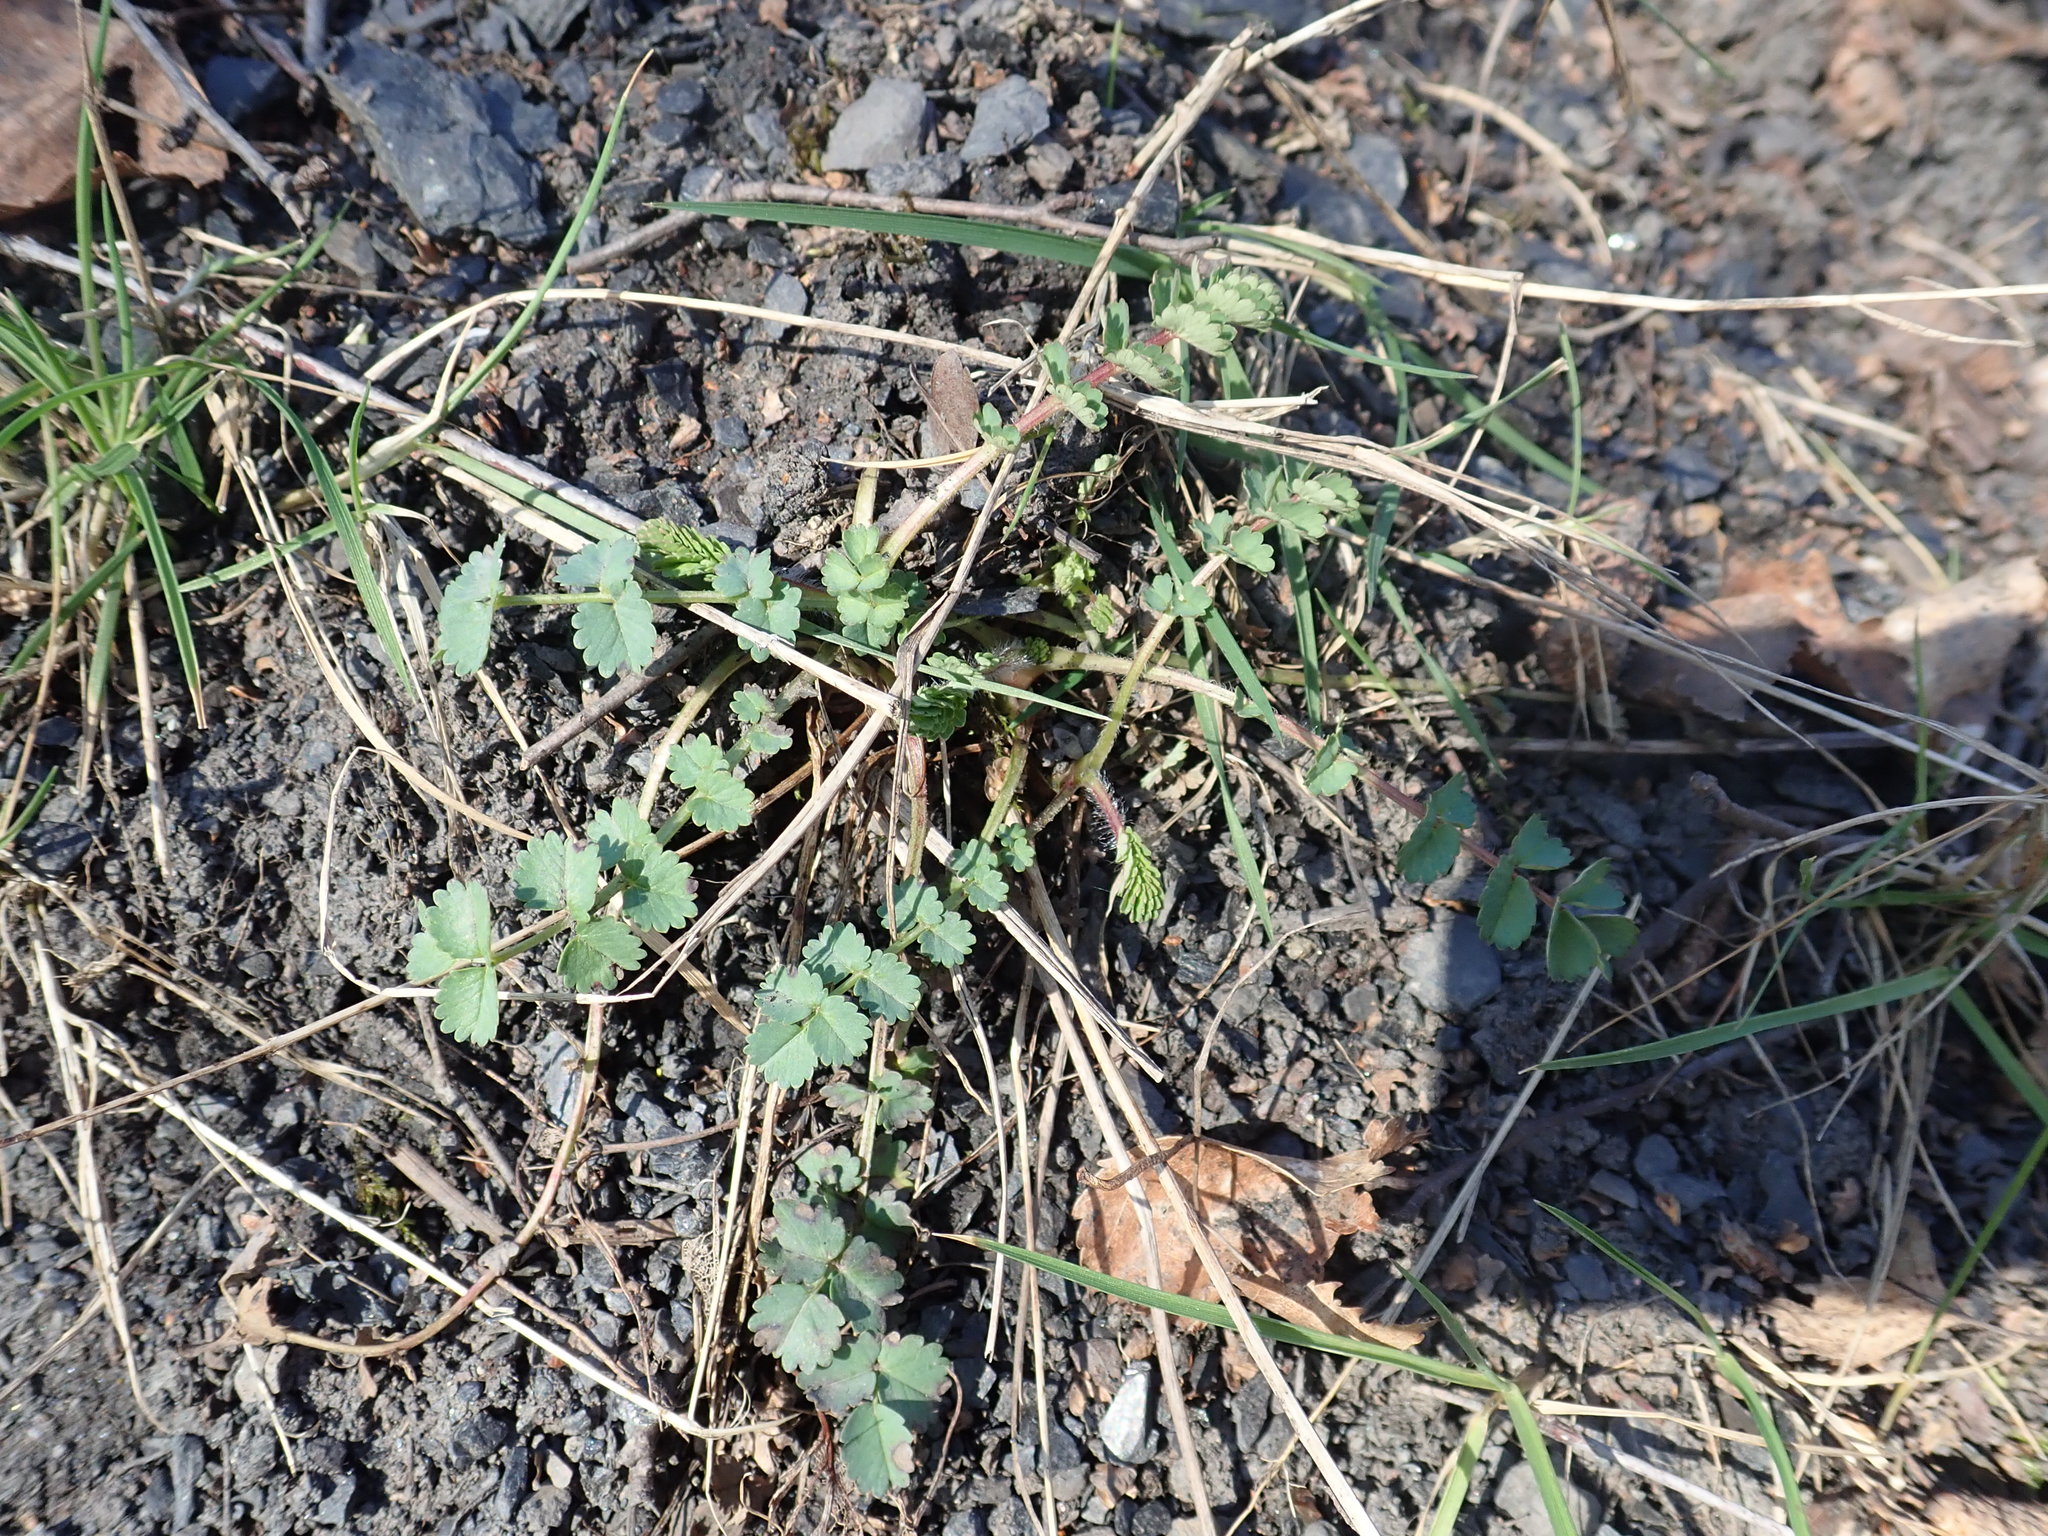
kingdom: Plantae
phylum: Tracheophyta
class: Magnoliopsida
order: Rosales
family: Rosaceae
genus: Poterium
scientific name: Poterium sanguisorba
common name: Salad burnet
